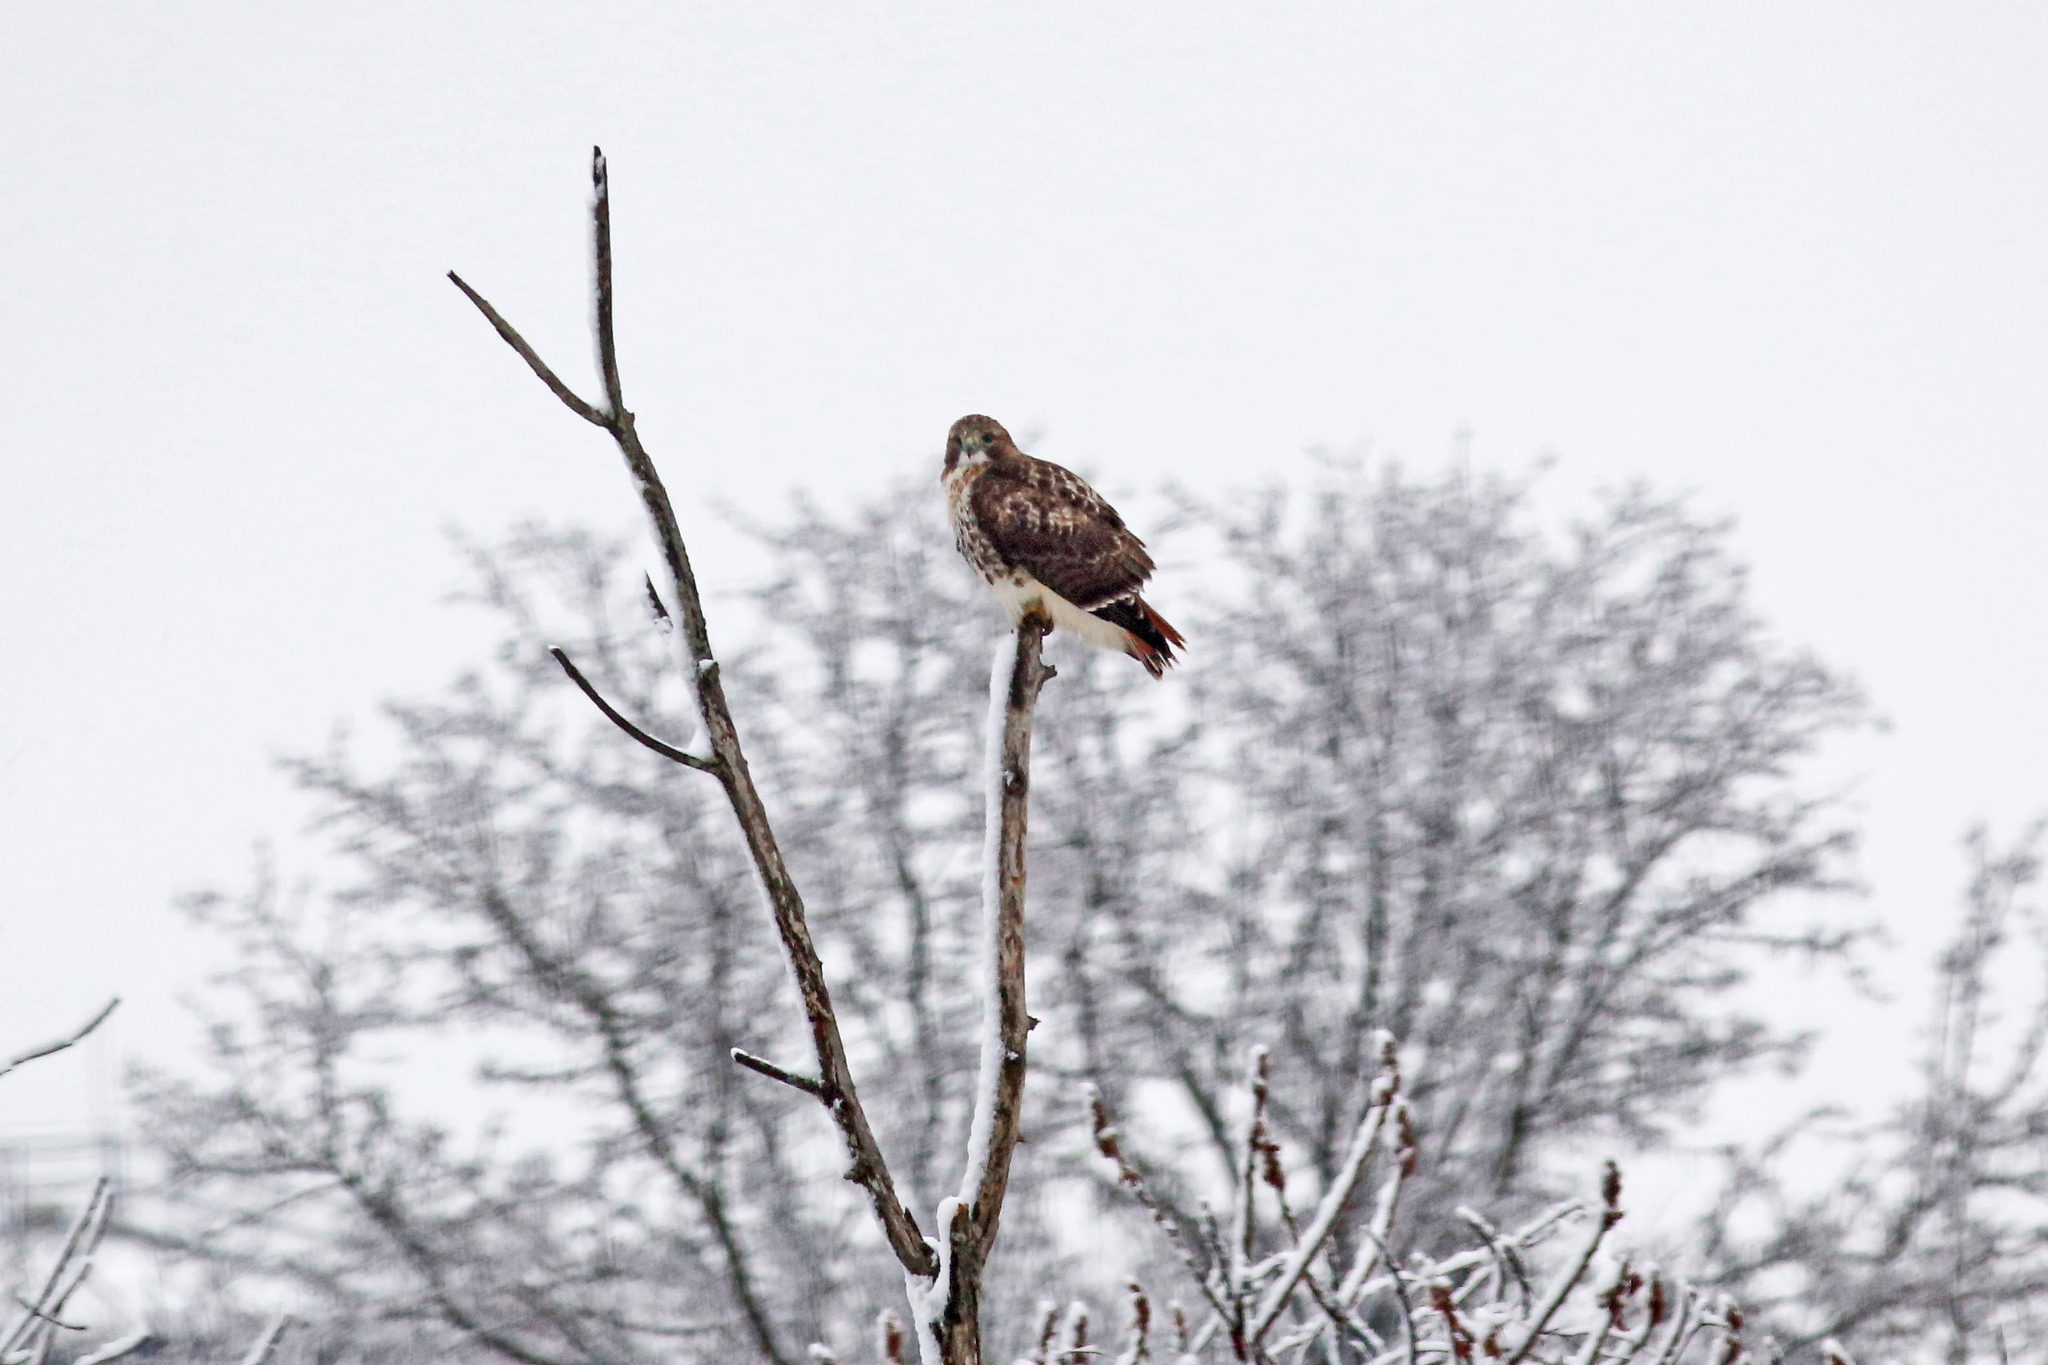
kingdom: Animalia
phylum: Chordata
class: Aves
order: Accipitriformes
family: Accipitridae
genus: Buteo
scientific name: Buteo jamaicensis
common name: Red-tailed hawk
